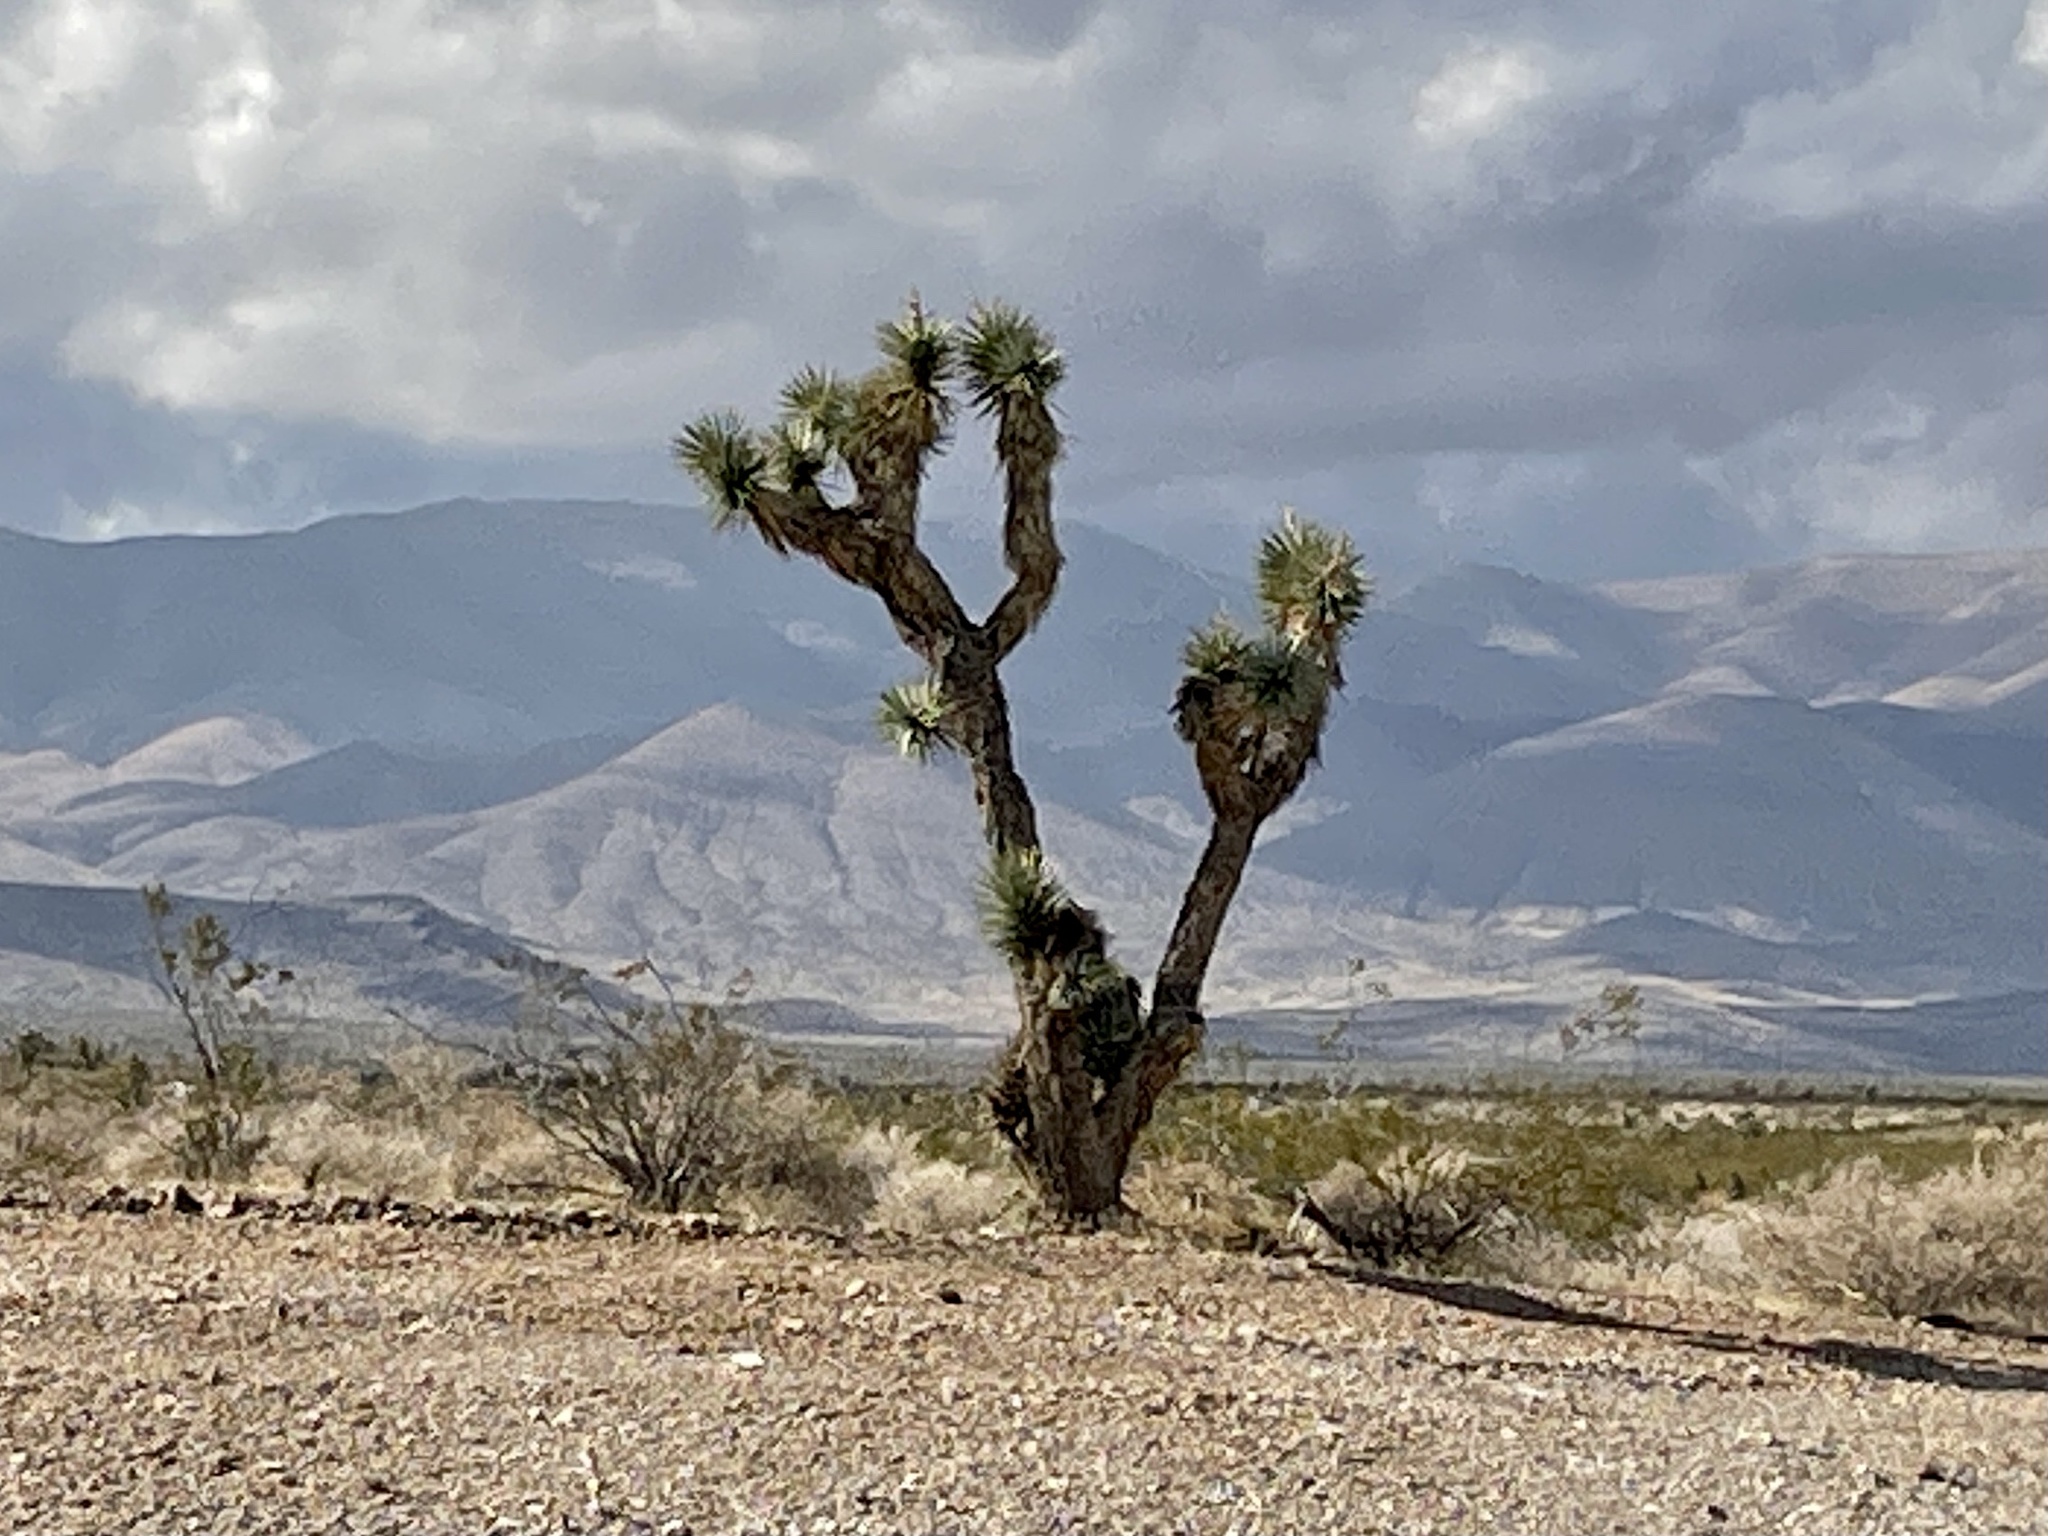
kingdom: Plantae
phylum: Tracheophyta
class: Liliopsida
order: Asparagales
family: Asparagaceae
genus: Yucca
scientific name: Yucca brevifolia
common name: Joshua tree
